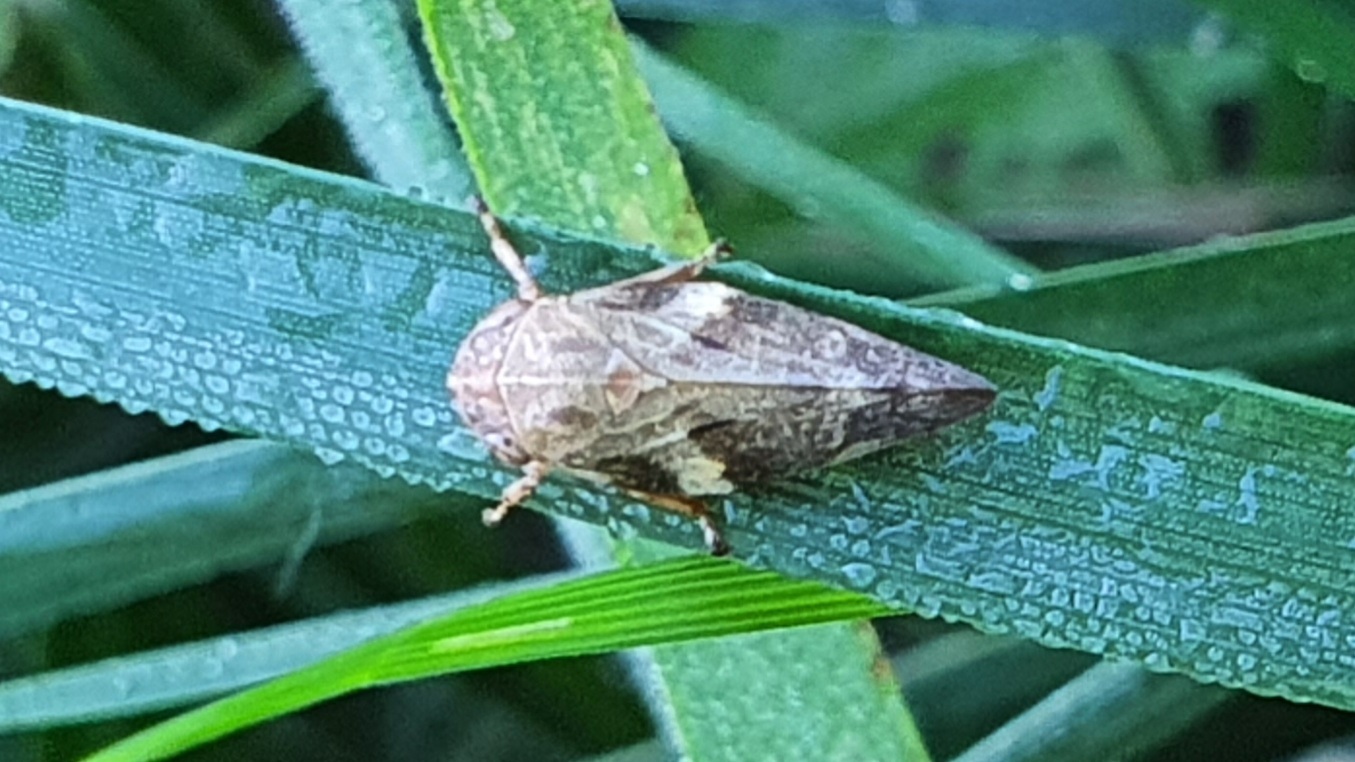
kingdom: Animalia
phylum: Arthropoda
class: Insecta
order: Hemiptera
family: Aphrophoridae
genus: Aphrophora
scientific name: Aphrophora alni
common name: European alder spittlebug
